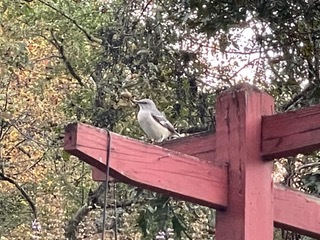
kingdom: Animalia
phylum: Chordata
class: Aves
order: Passeriformes
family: Mimidae
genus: Mimus
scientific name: Mimus polyglottos
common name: Northern mockingbird
